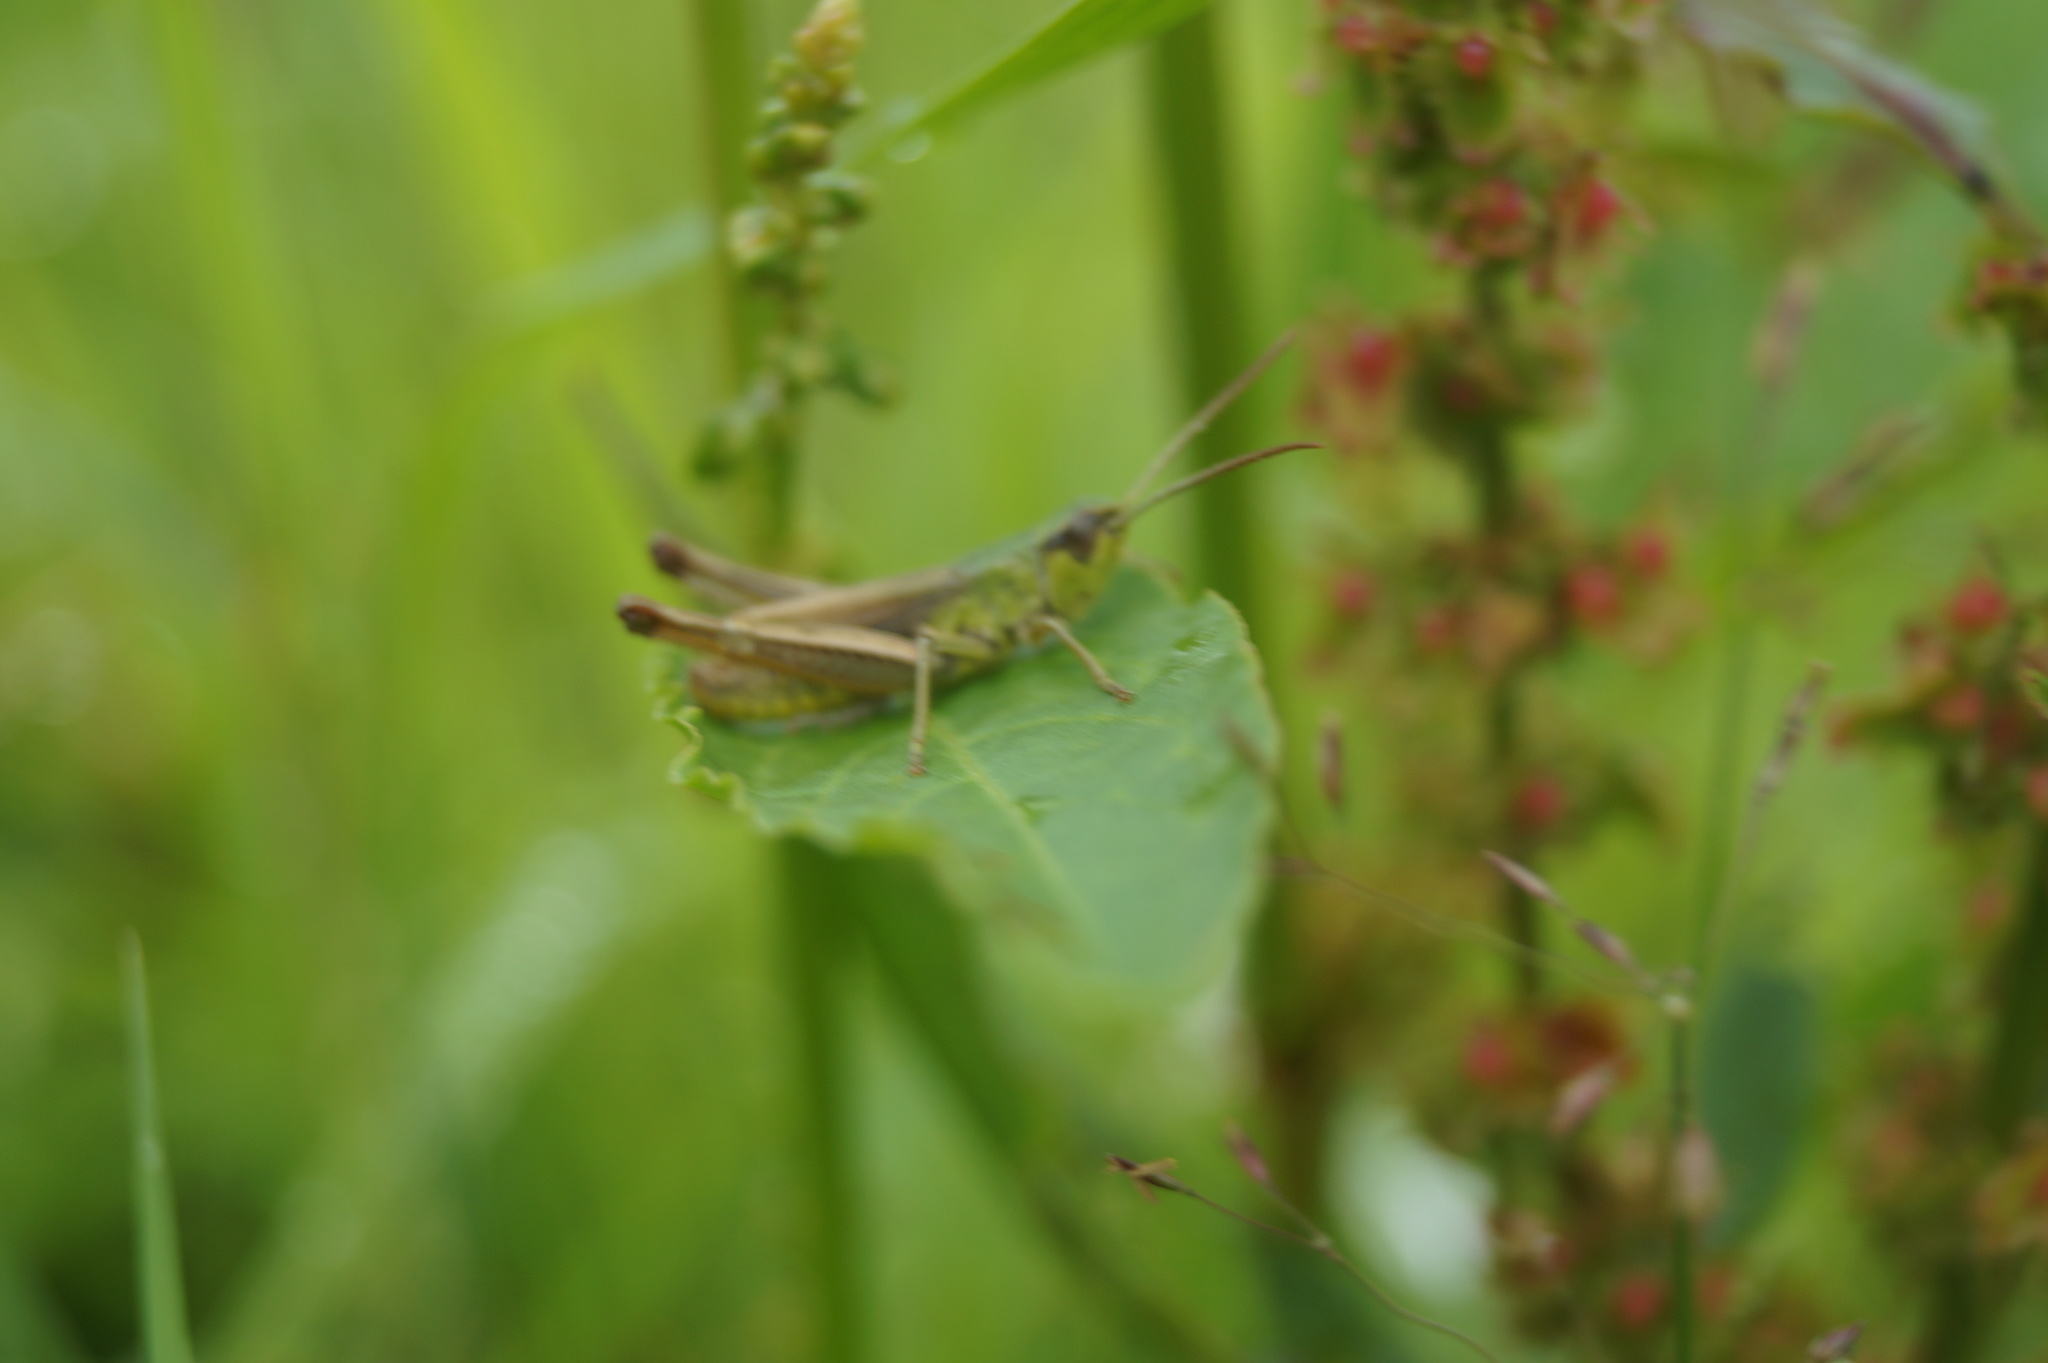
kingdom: Animalia
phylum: Arthropoda
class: Insecta
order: Orthoptera
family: Acrididae
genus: Pseudochorthippus
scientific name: Pseudochorthippus parallelus
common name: Meadow grasshopper
